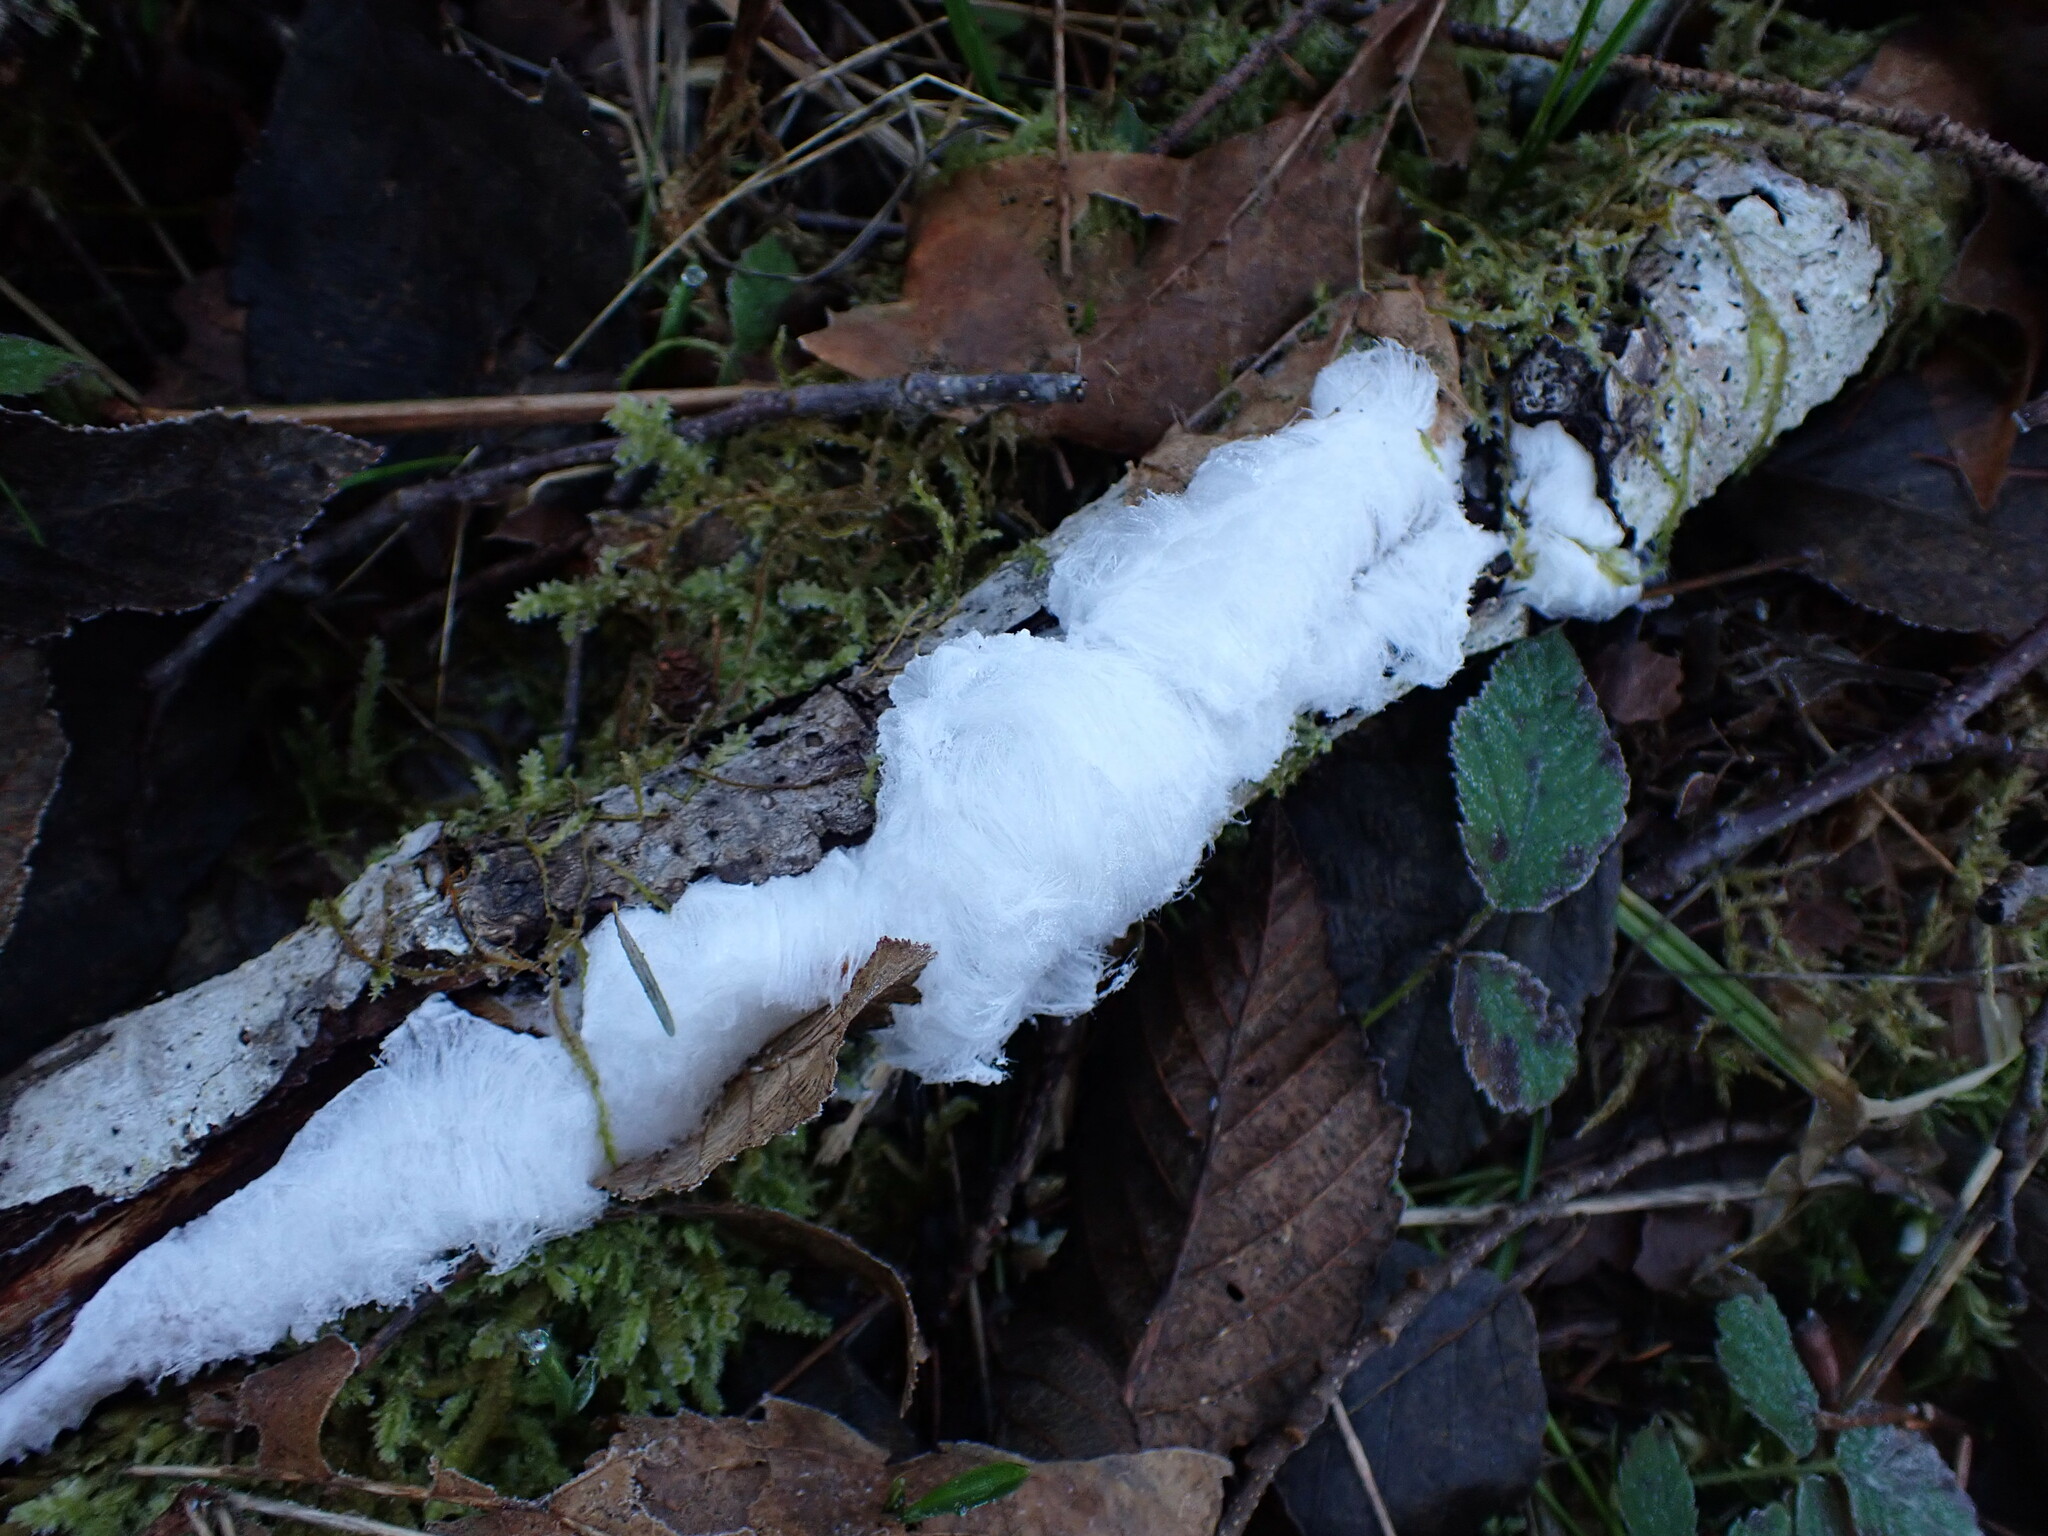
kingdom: Fungi
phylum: Basidiomycota
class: Agaricomycetes
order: Auriculariales
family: Auriculariaceae
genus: Exidiopsis
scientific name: Exidiopsis effusa
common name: Hair ice crust
